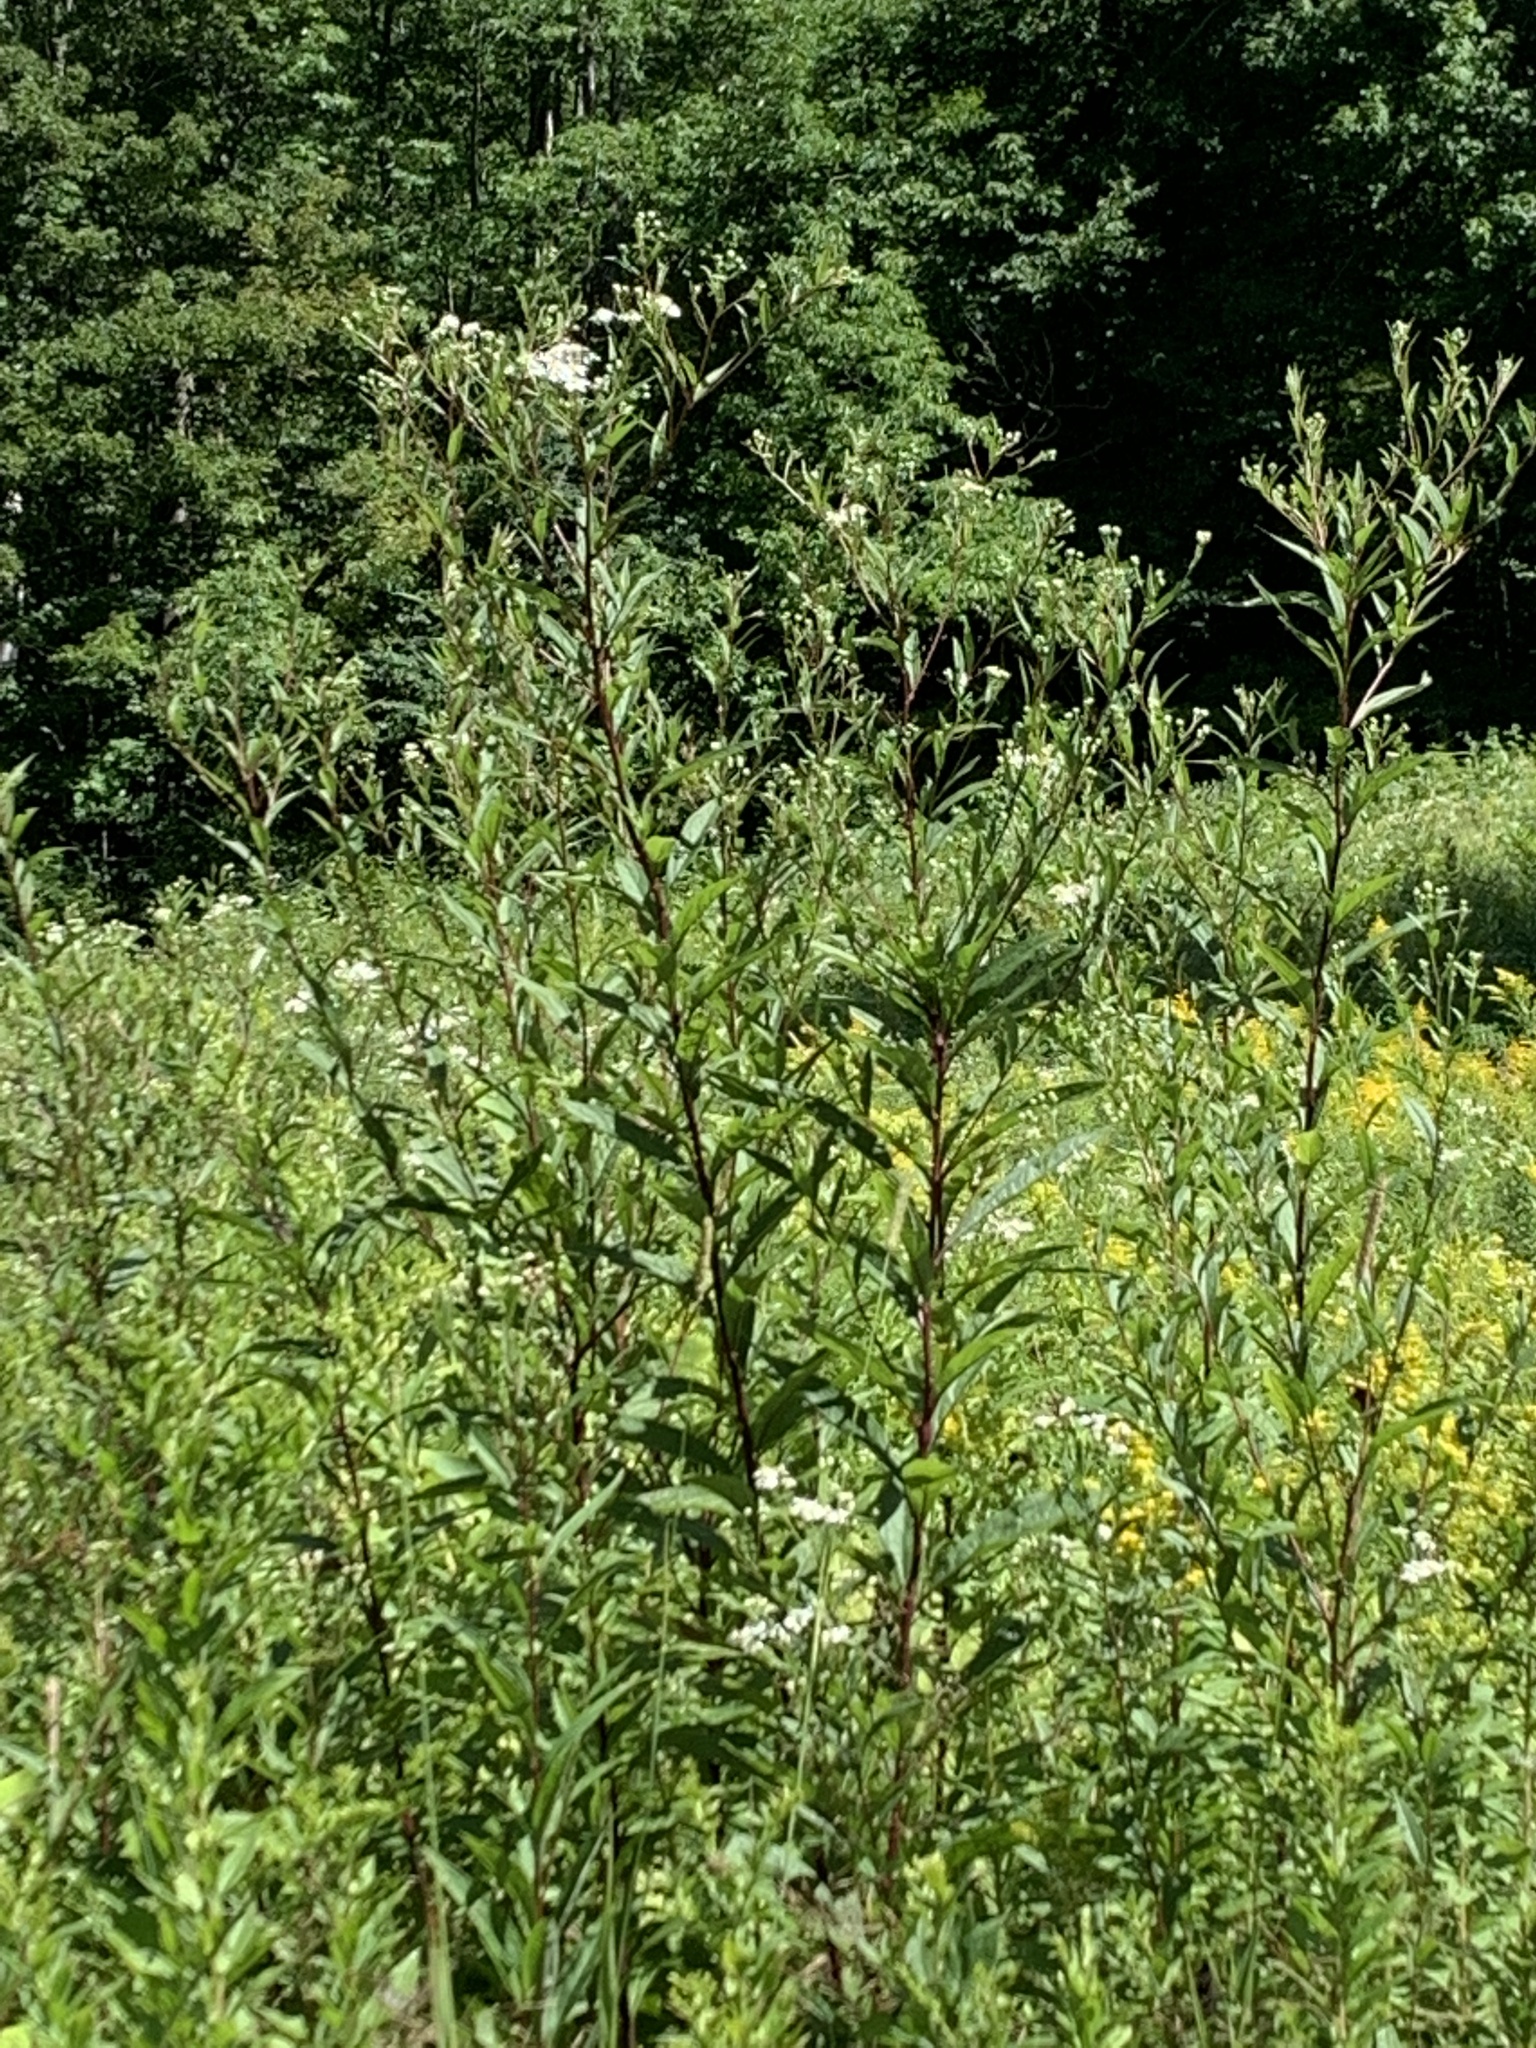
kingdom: Plantae
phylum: Tracheophyta
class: Magnoliopsida
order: Asterales
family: Asteraceae
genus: Doellingeria
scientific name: Doellingeria umbellata
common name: Flat-top white aster
